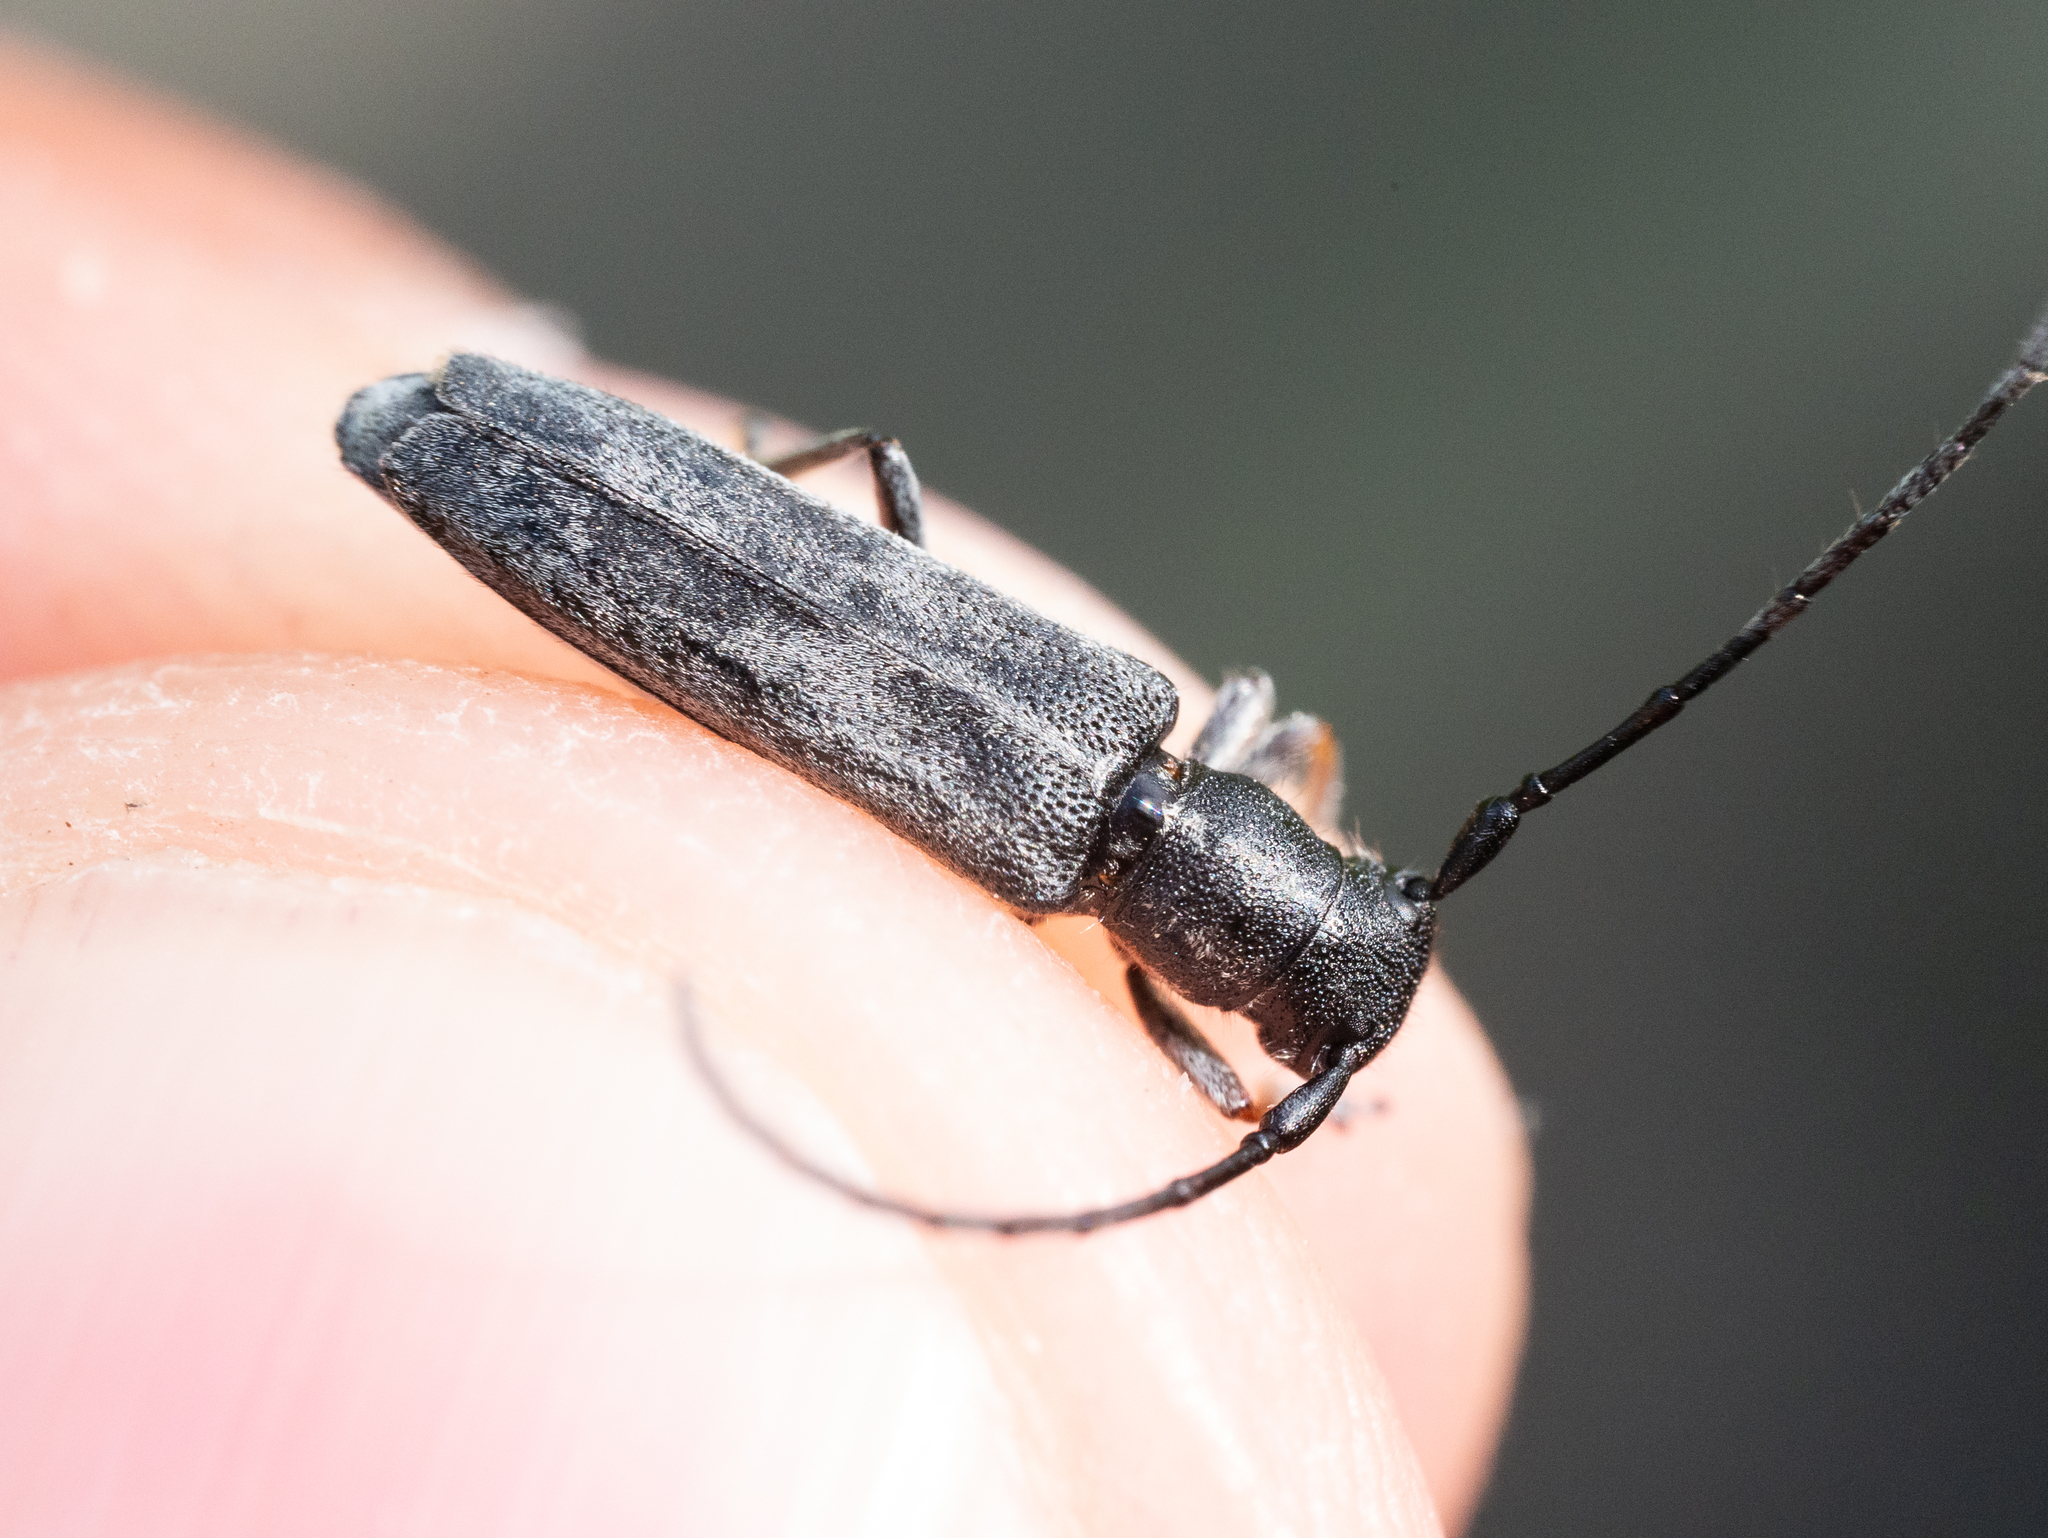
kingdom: Animalia
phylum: Arthropoda
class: Insecta
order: Coleoptera
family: Cerambycidae
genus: Phytoecia
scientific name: Phytoecia cylindrica
